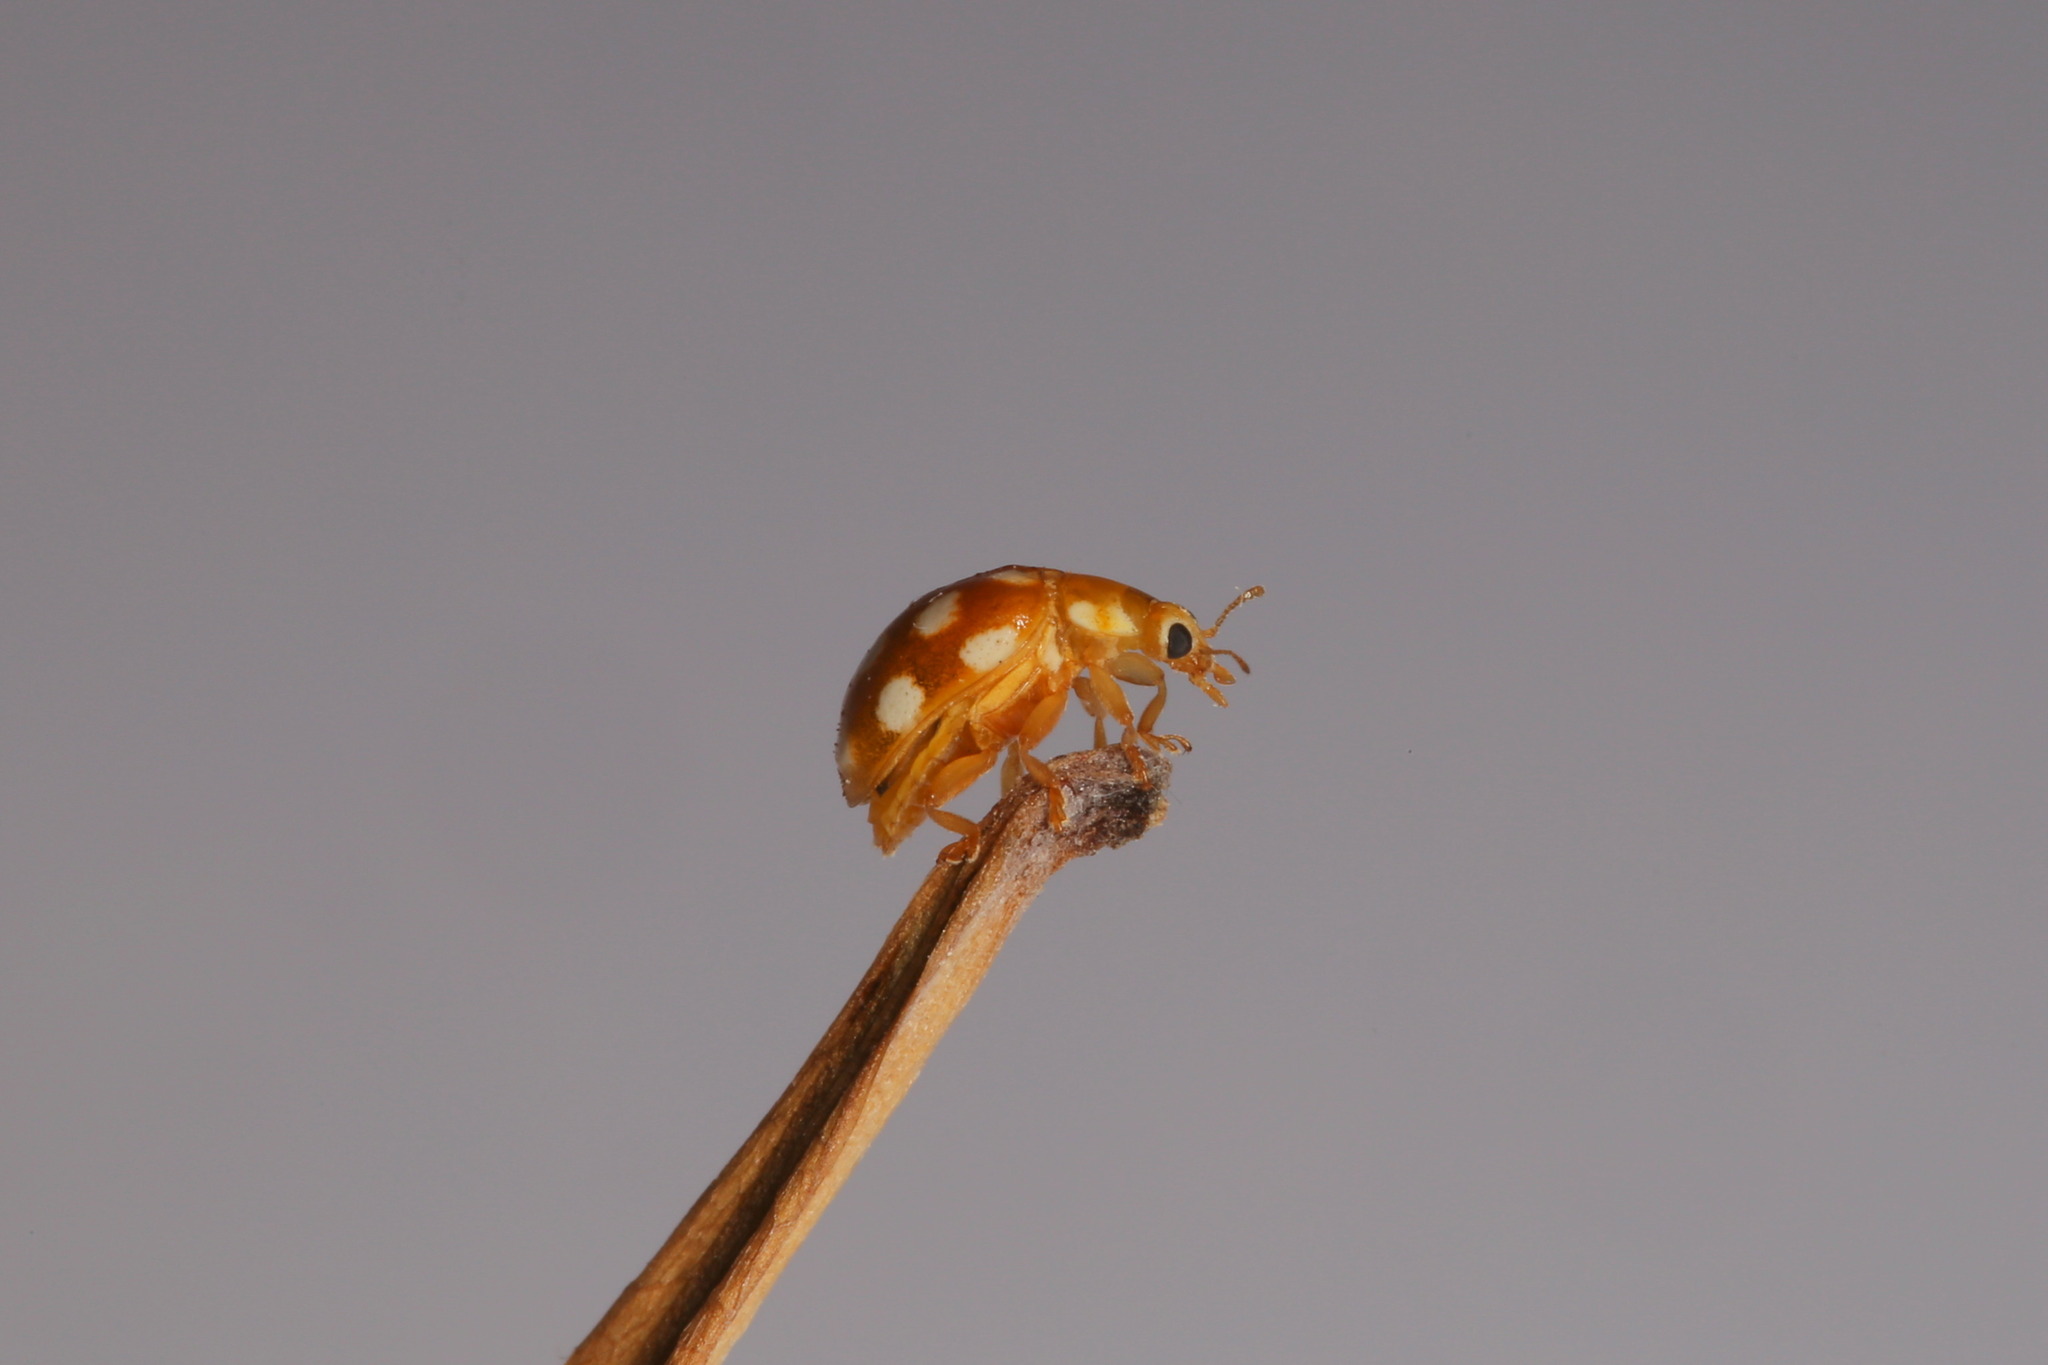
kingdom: Animalia
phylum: Arthropoda
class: Insecta
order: Coleoptera
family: Coccinellidae
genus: Vibidia
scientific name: Vibidia duodecimguttata
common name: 12-spot ladybird
